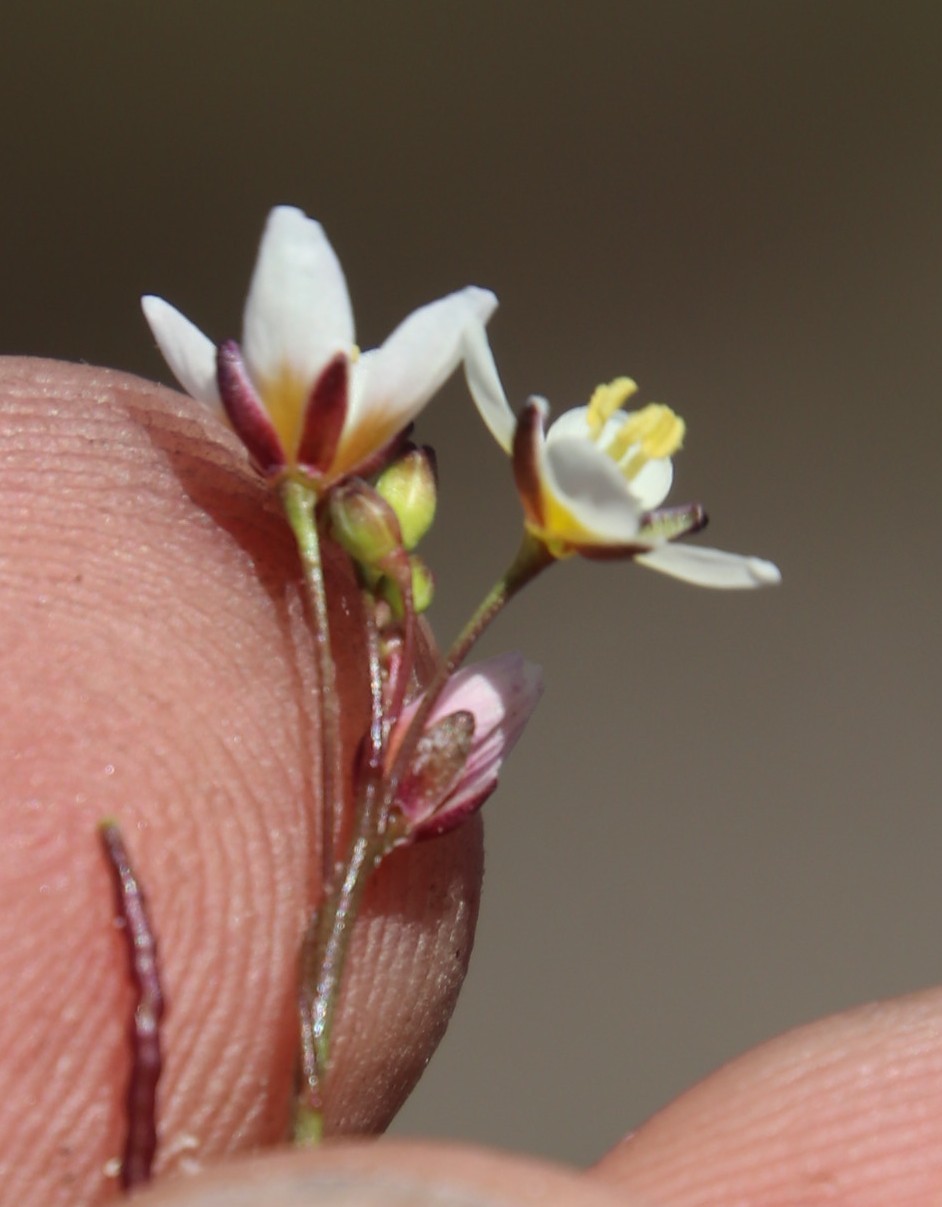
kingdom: Plantae
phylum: Tracheophyta
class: Magnoliopsida
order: Brassicales
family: Brassicaceae
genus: Heliophila
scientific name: Heliophila pendula
